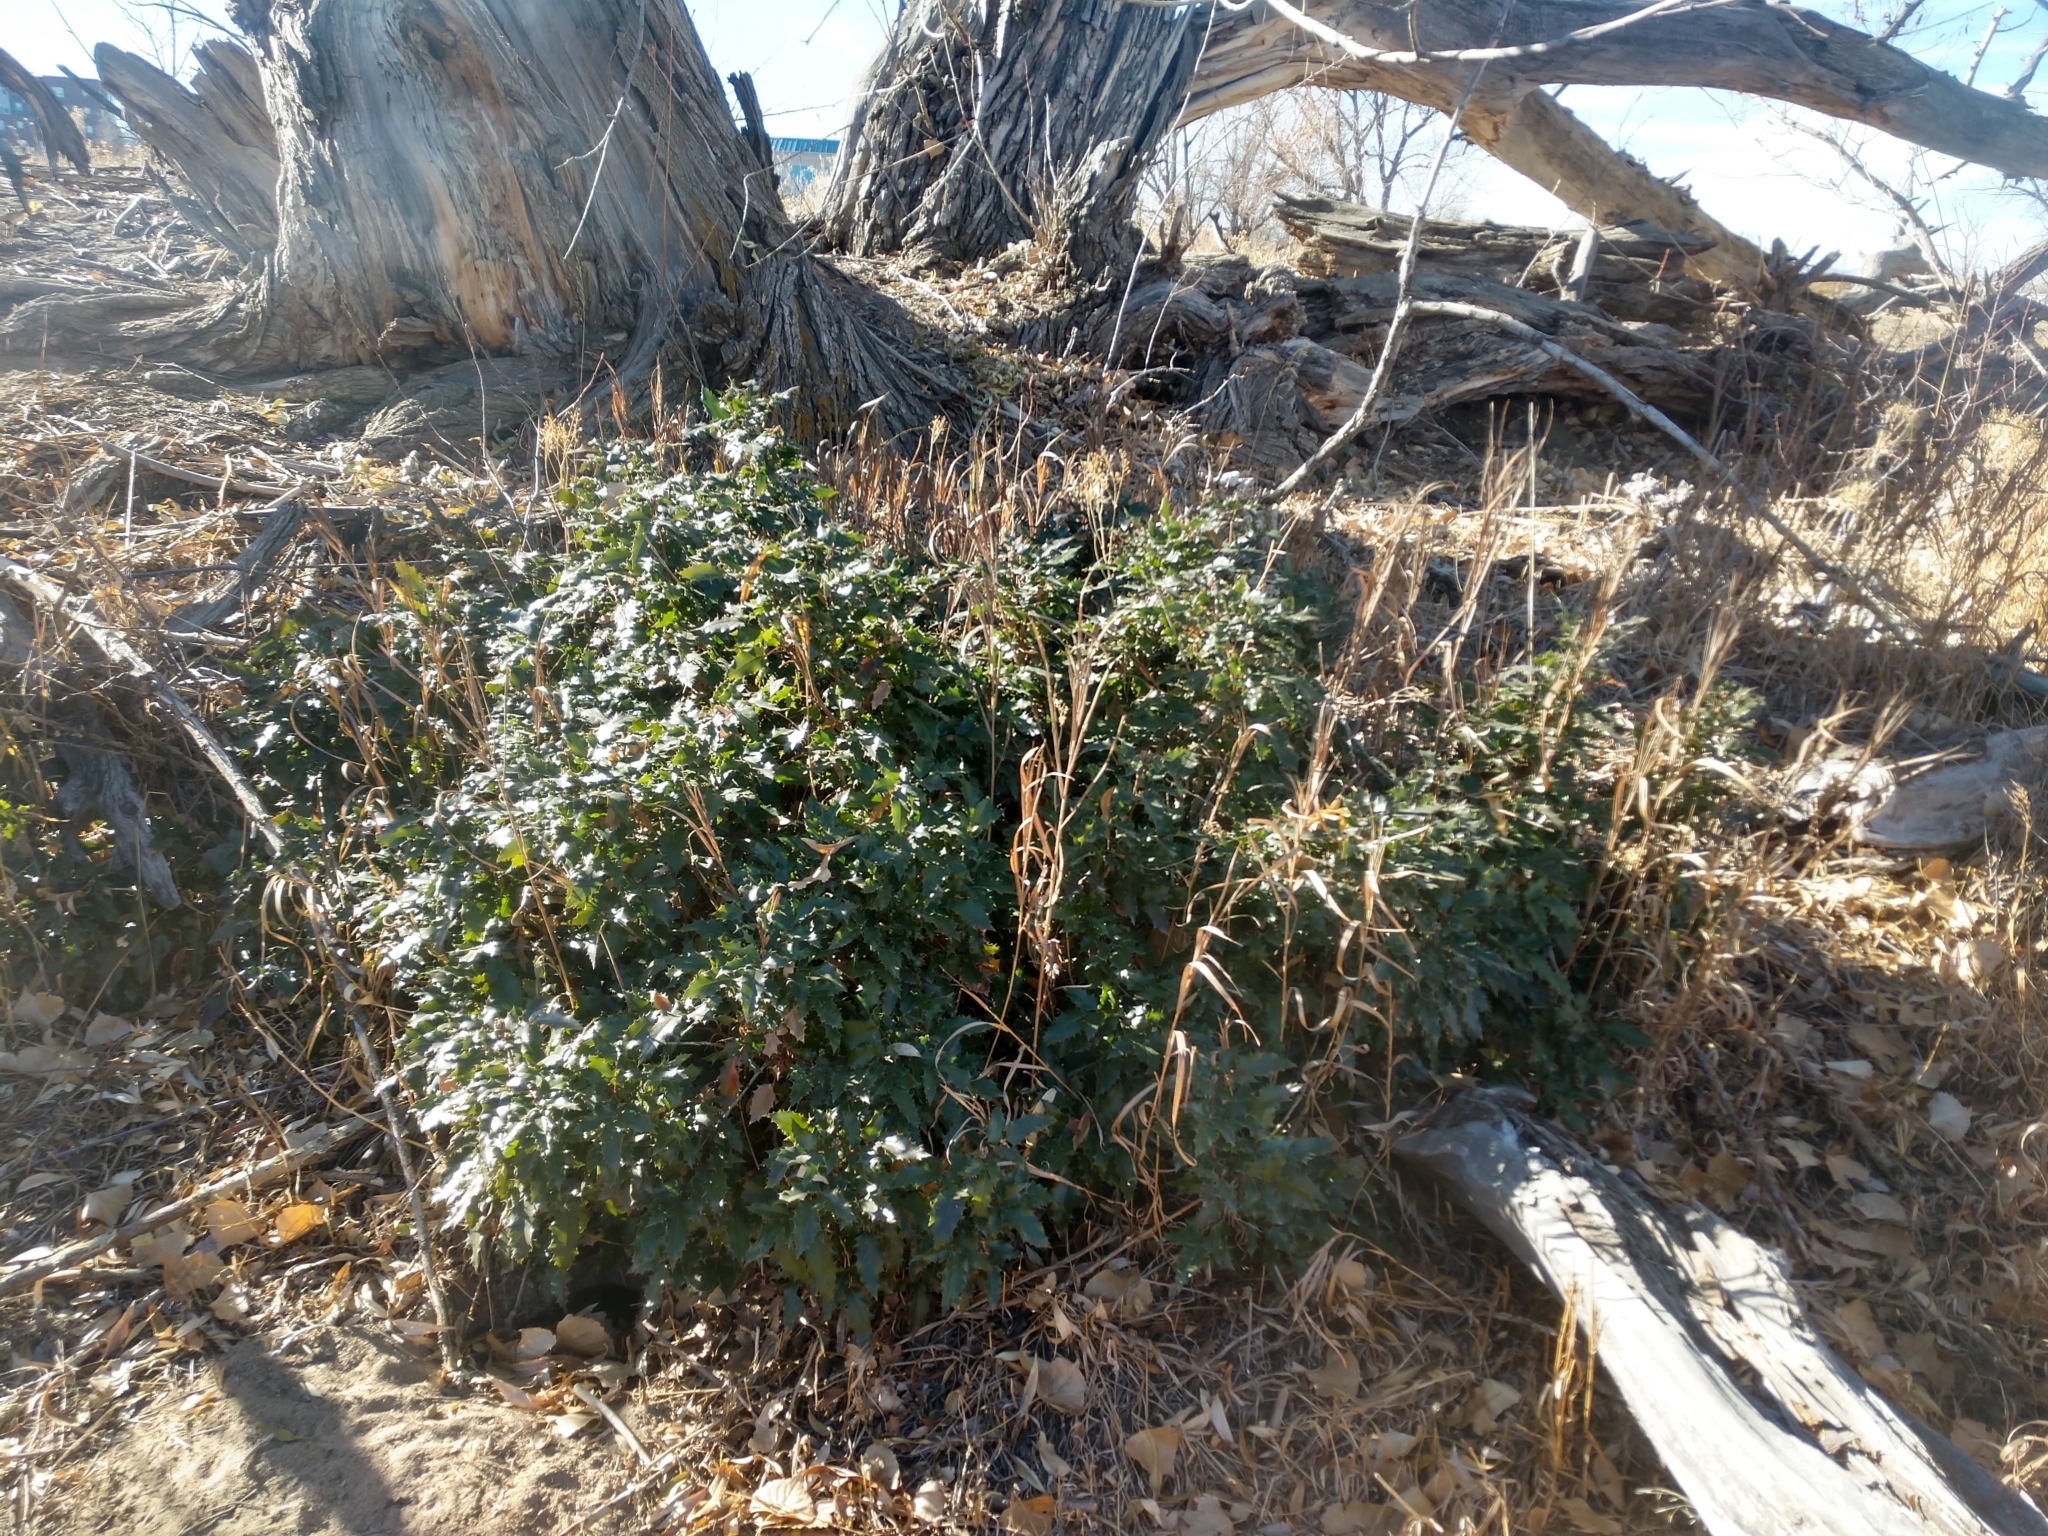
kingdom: Plantae
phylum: Tracheophyta
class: Magnoliopsida
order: Ranunculales
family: Berberidaceae
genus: Mahonia
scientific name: Mahonia aquifolium
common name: Oregon-grape
